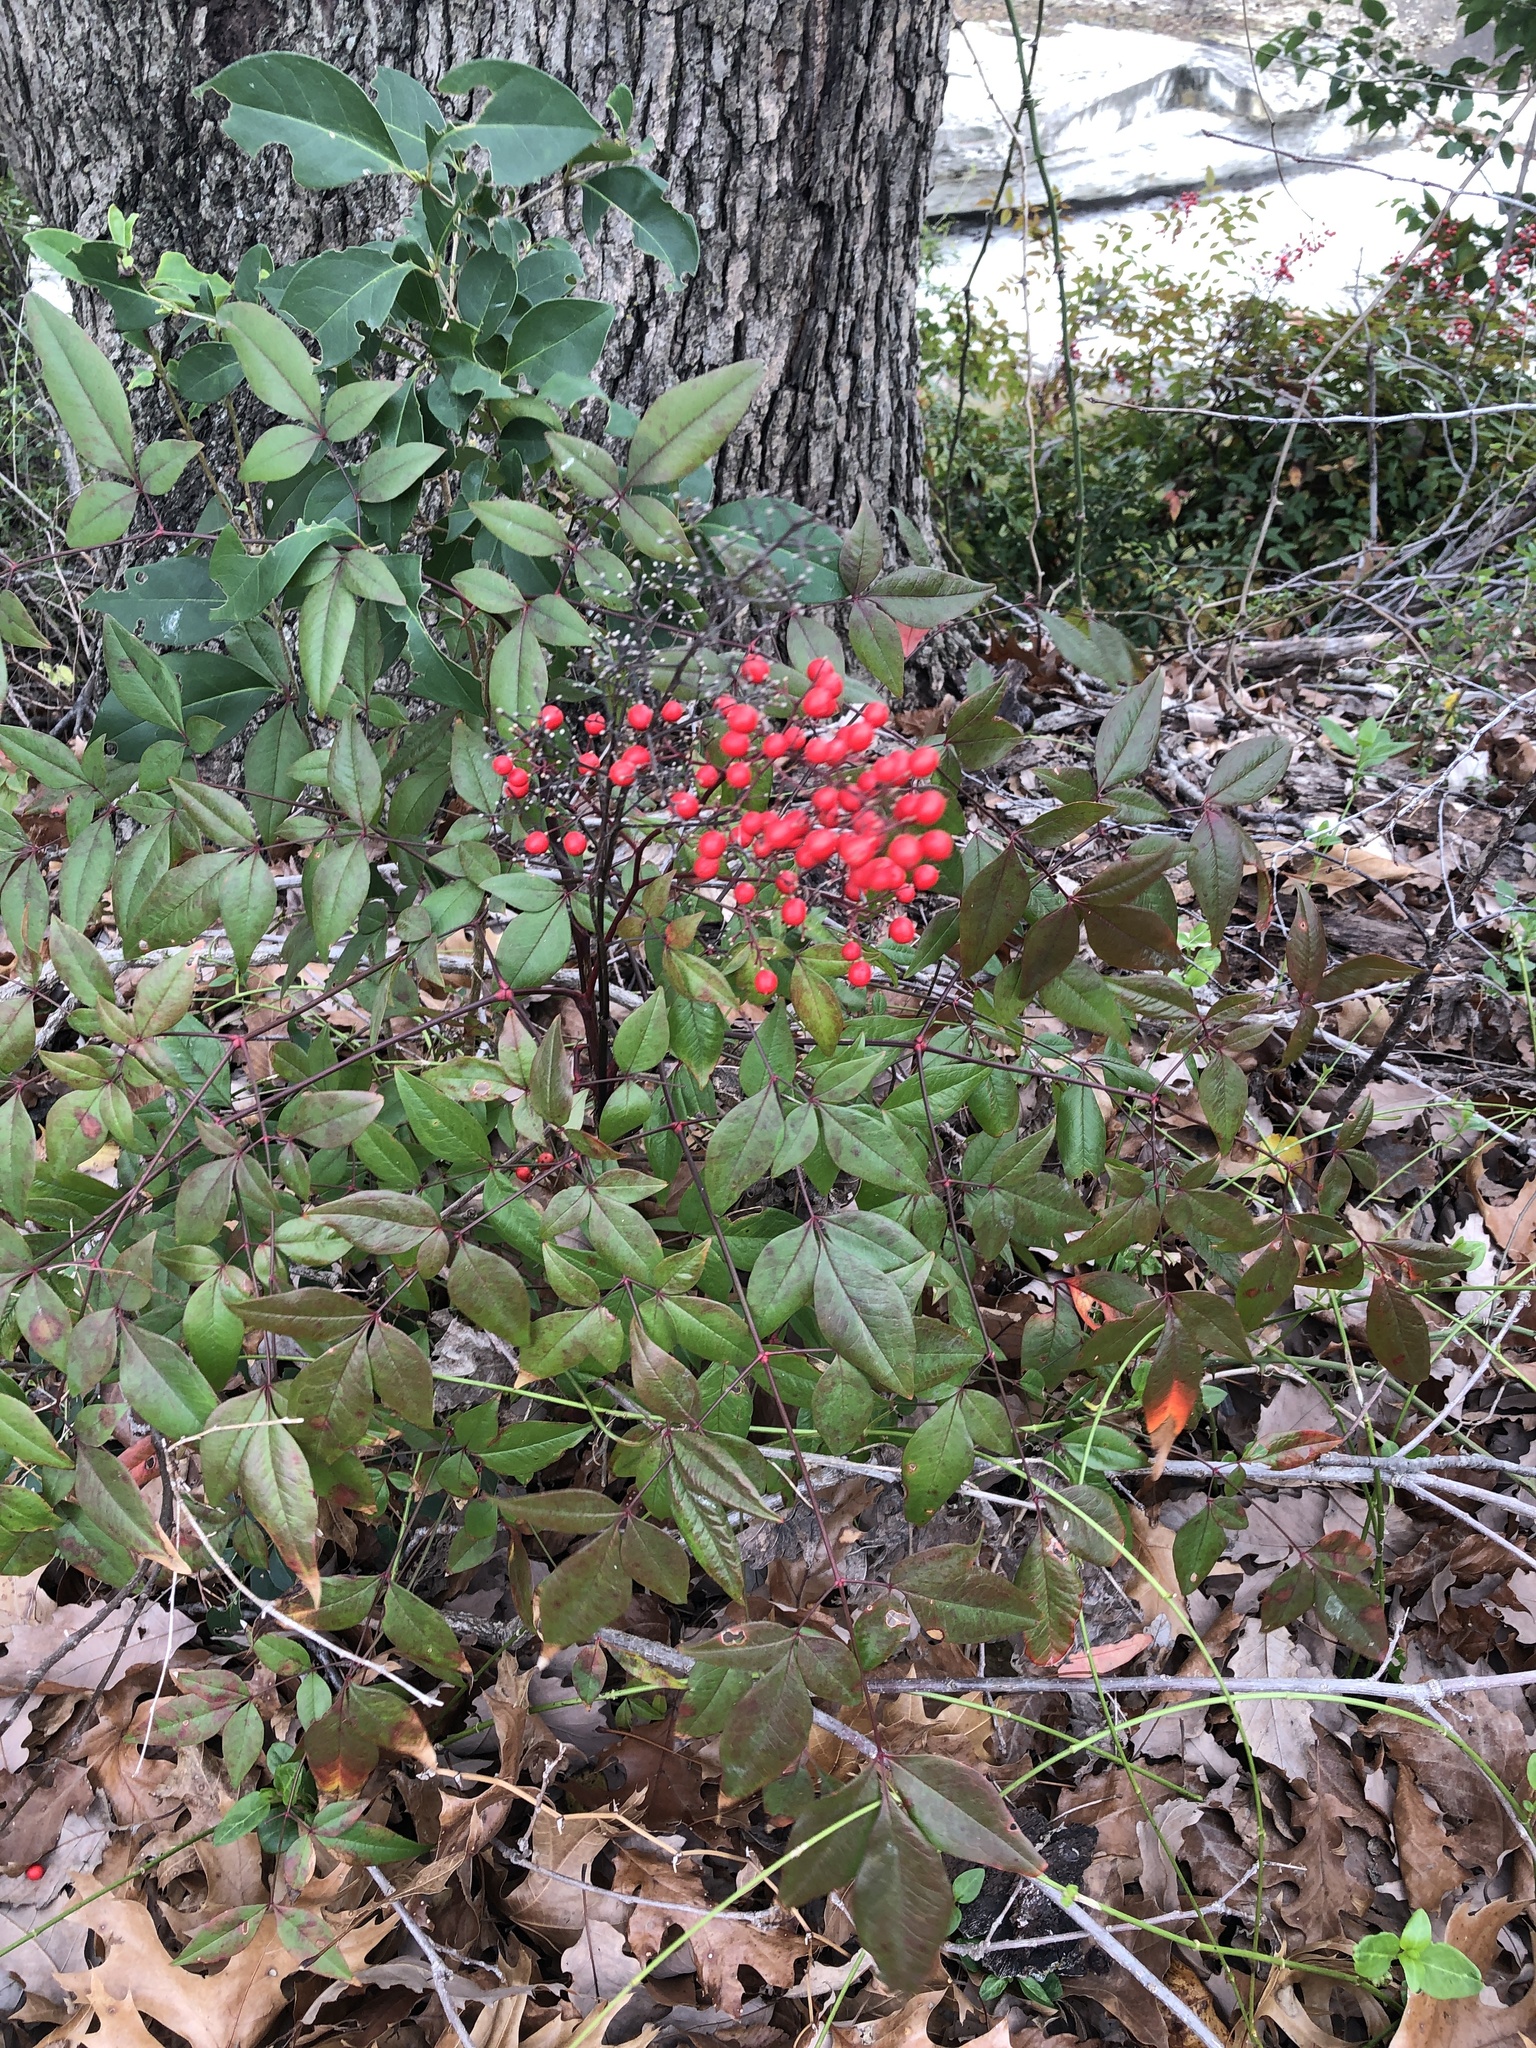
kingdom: Plantae
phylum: Tracheophyta
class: Magnoliopsida
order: Ranunculales
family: Berberidaceae
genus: Nandina
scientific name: Nandina domestica
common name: Sacred bamboo
